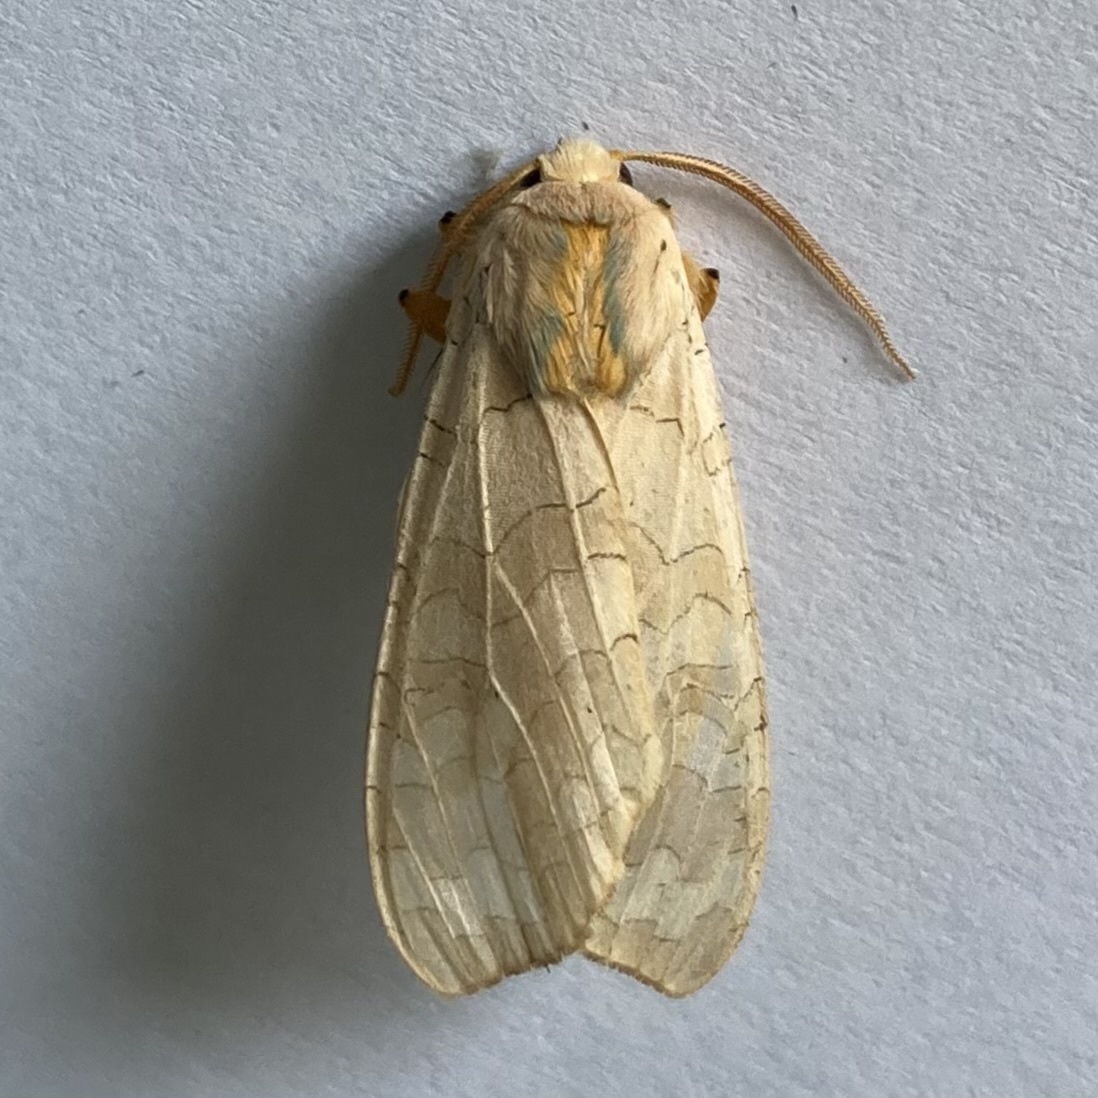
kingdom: Animalia
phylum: Arthropoda
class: Insecta
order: Lepidoptera
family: Erebidae
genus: Halysidota
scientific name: Halysidota tessellaris
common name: Banded tussock moth
